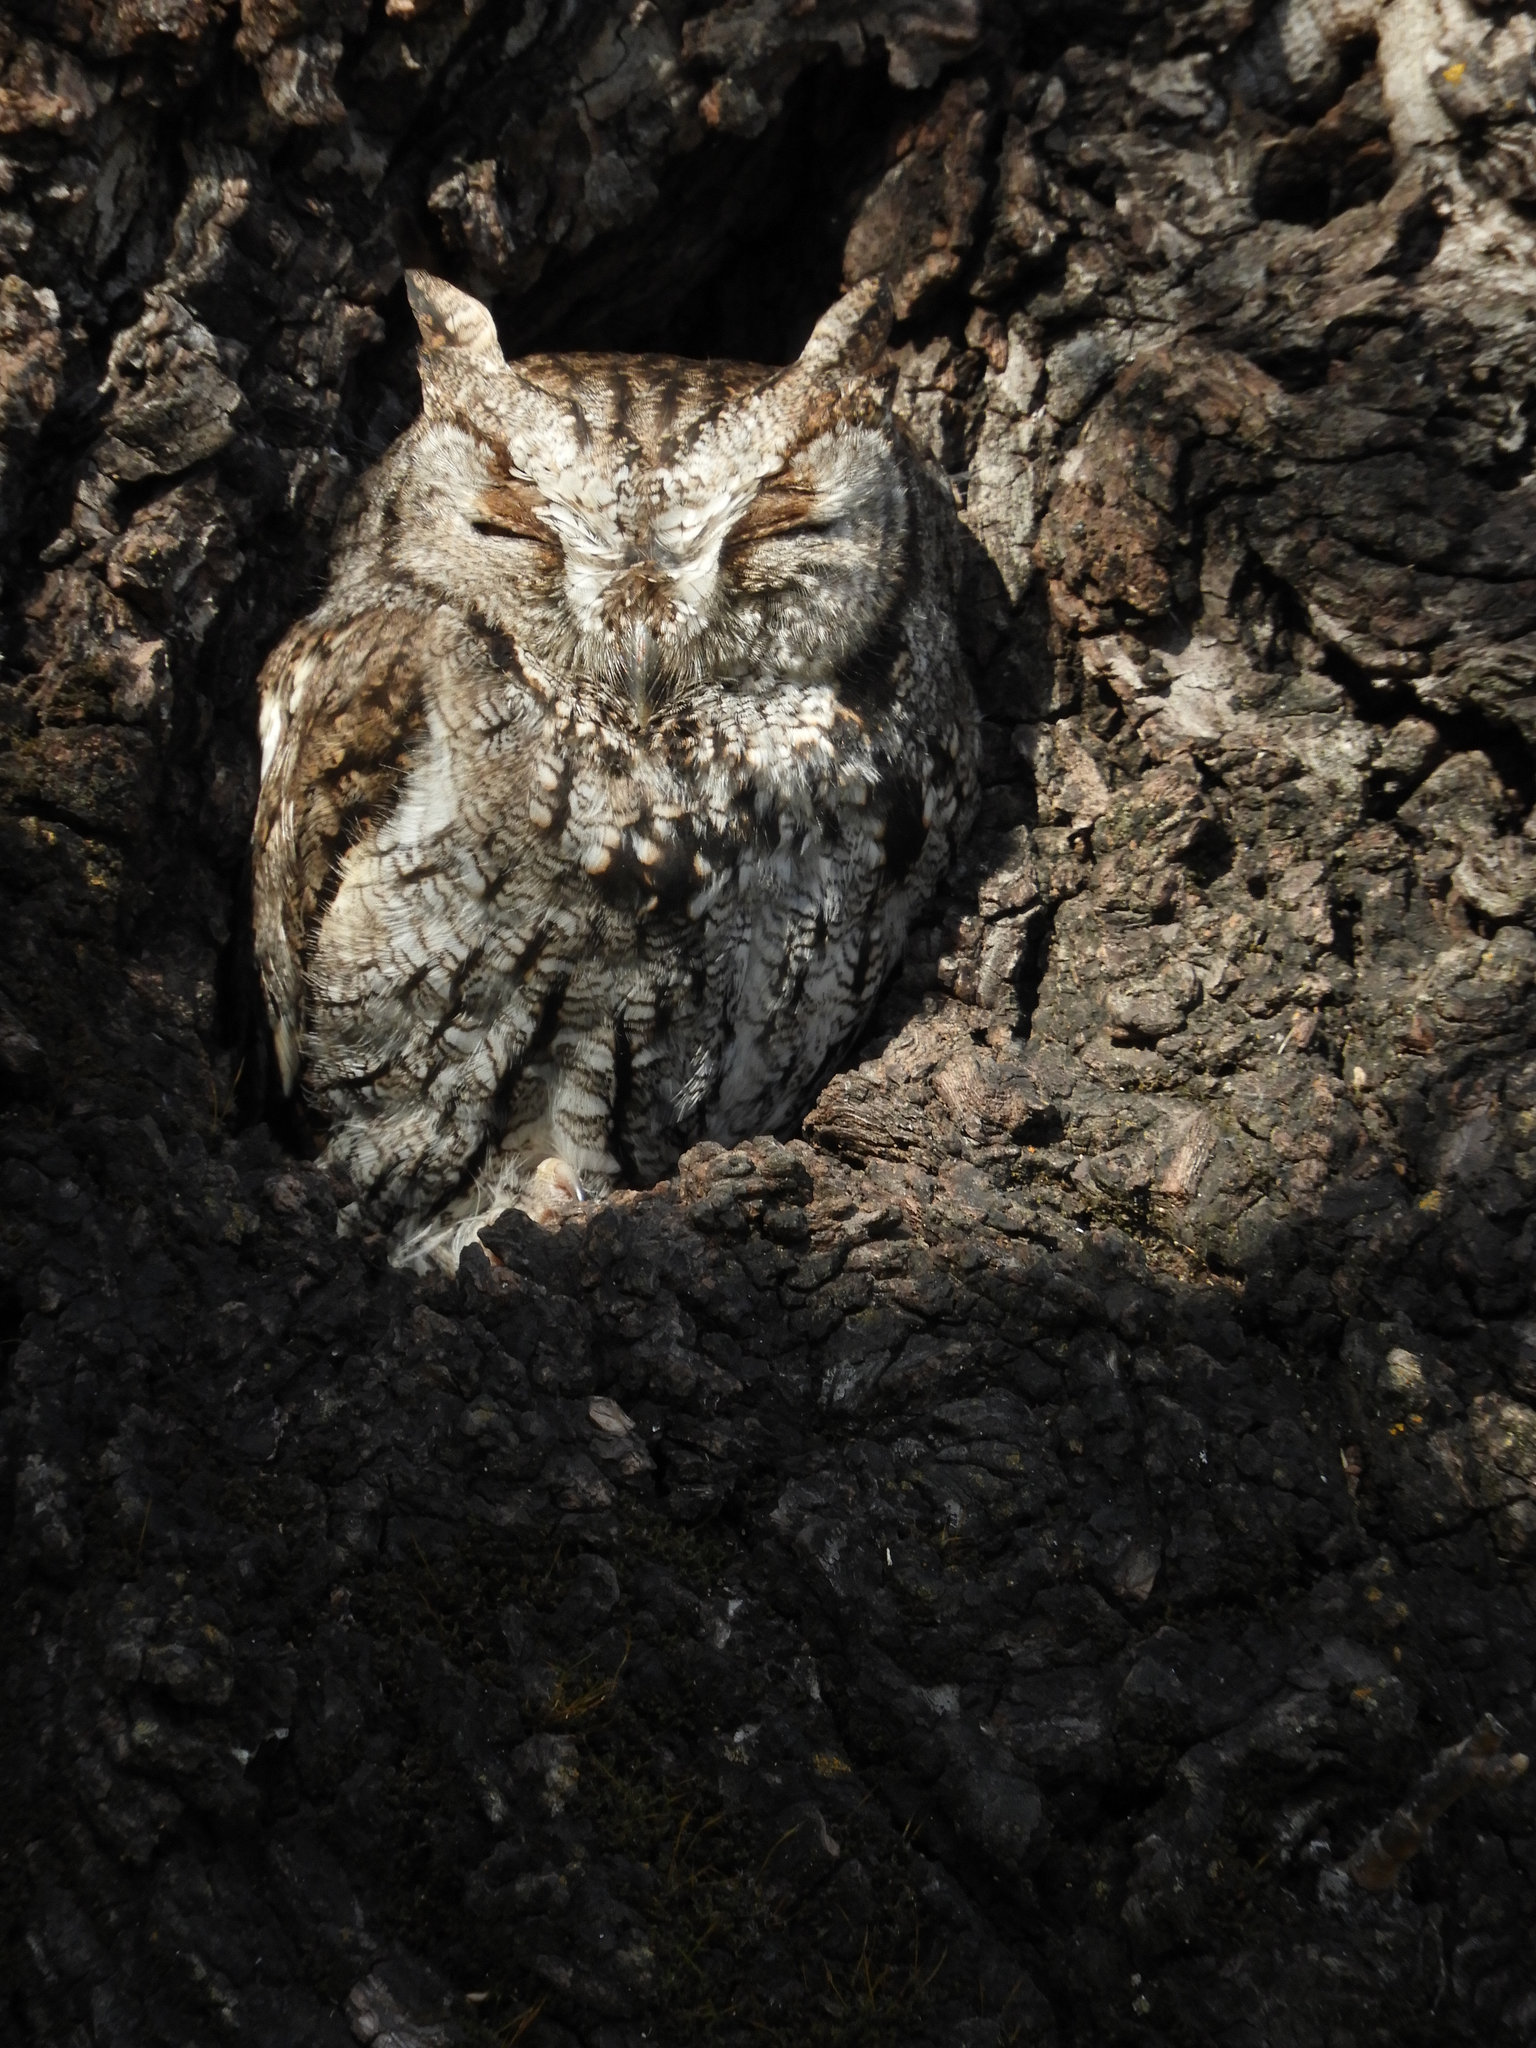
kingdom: Animalia
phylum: Chordata
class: Aves
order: Strigiformes
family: Strigidae
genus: Megascops
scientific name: Megascops kennicottii
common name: Western screech-owl
